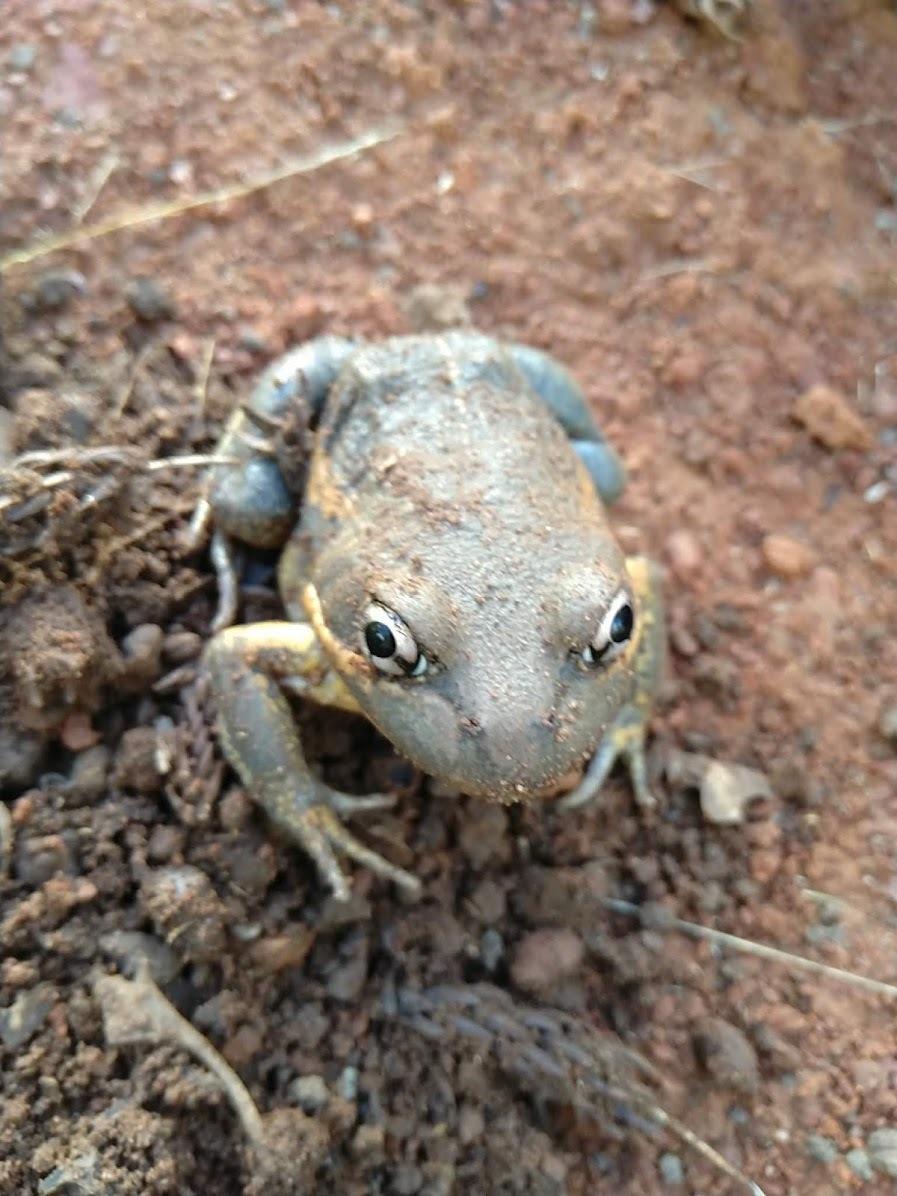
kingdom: Animalia
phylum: Chordata
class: Amphibia
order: Anura
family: Limnodynastidae
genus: Limnodynastes
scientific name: Limnodynastes terraereginae
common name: Northern banjo frog
